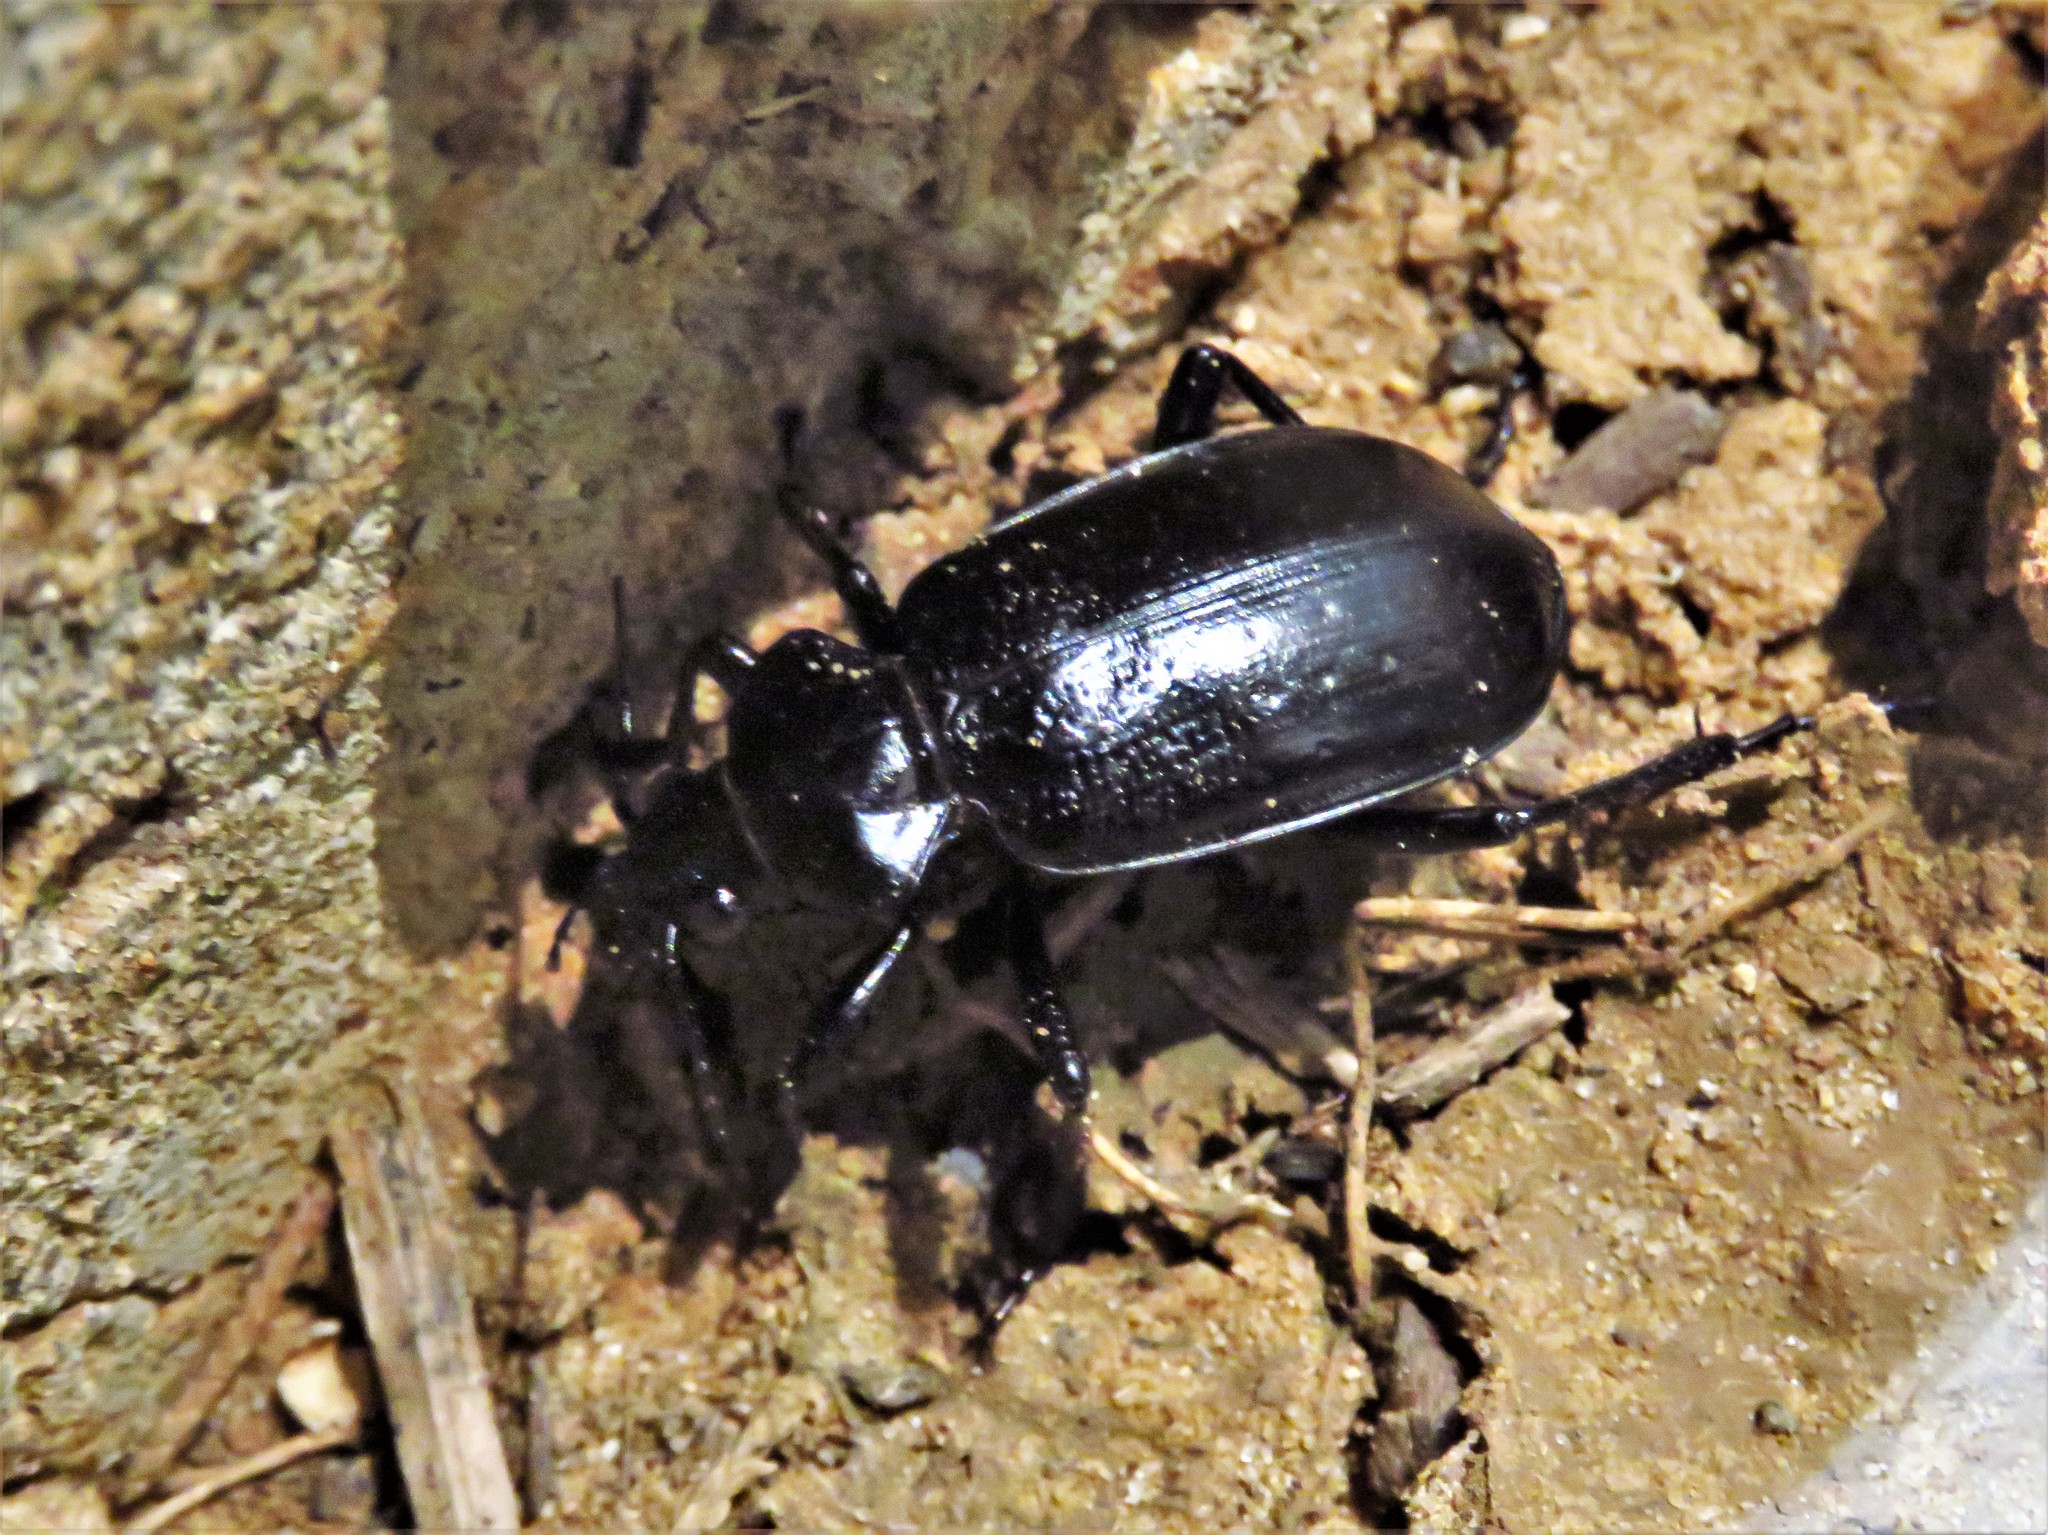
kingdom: Animalia
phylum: Arthropoda
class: Insecta
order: Coleoptera
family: Carabidae
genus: Calosoma
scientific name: Calosoma marginale
